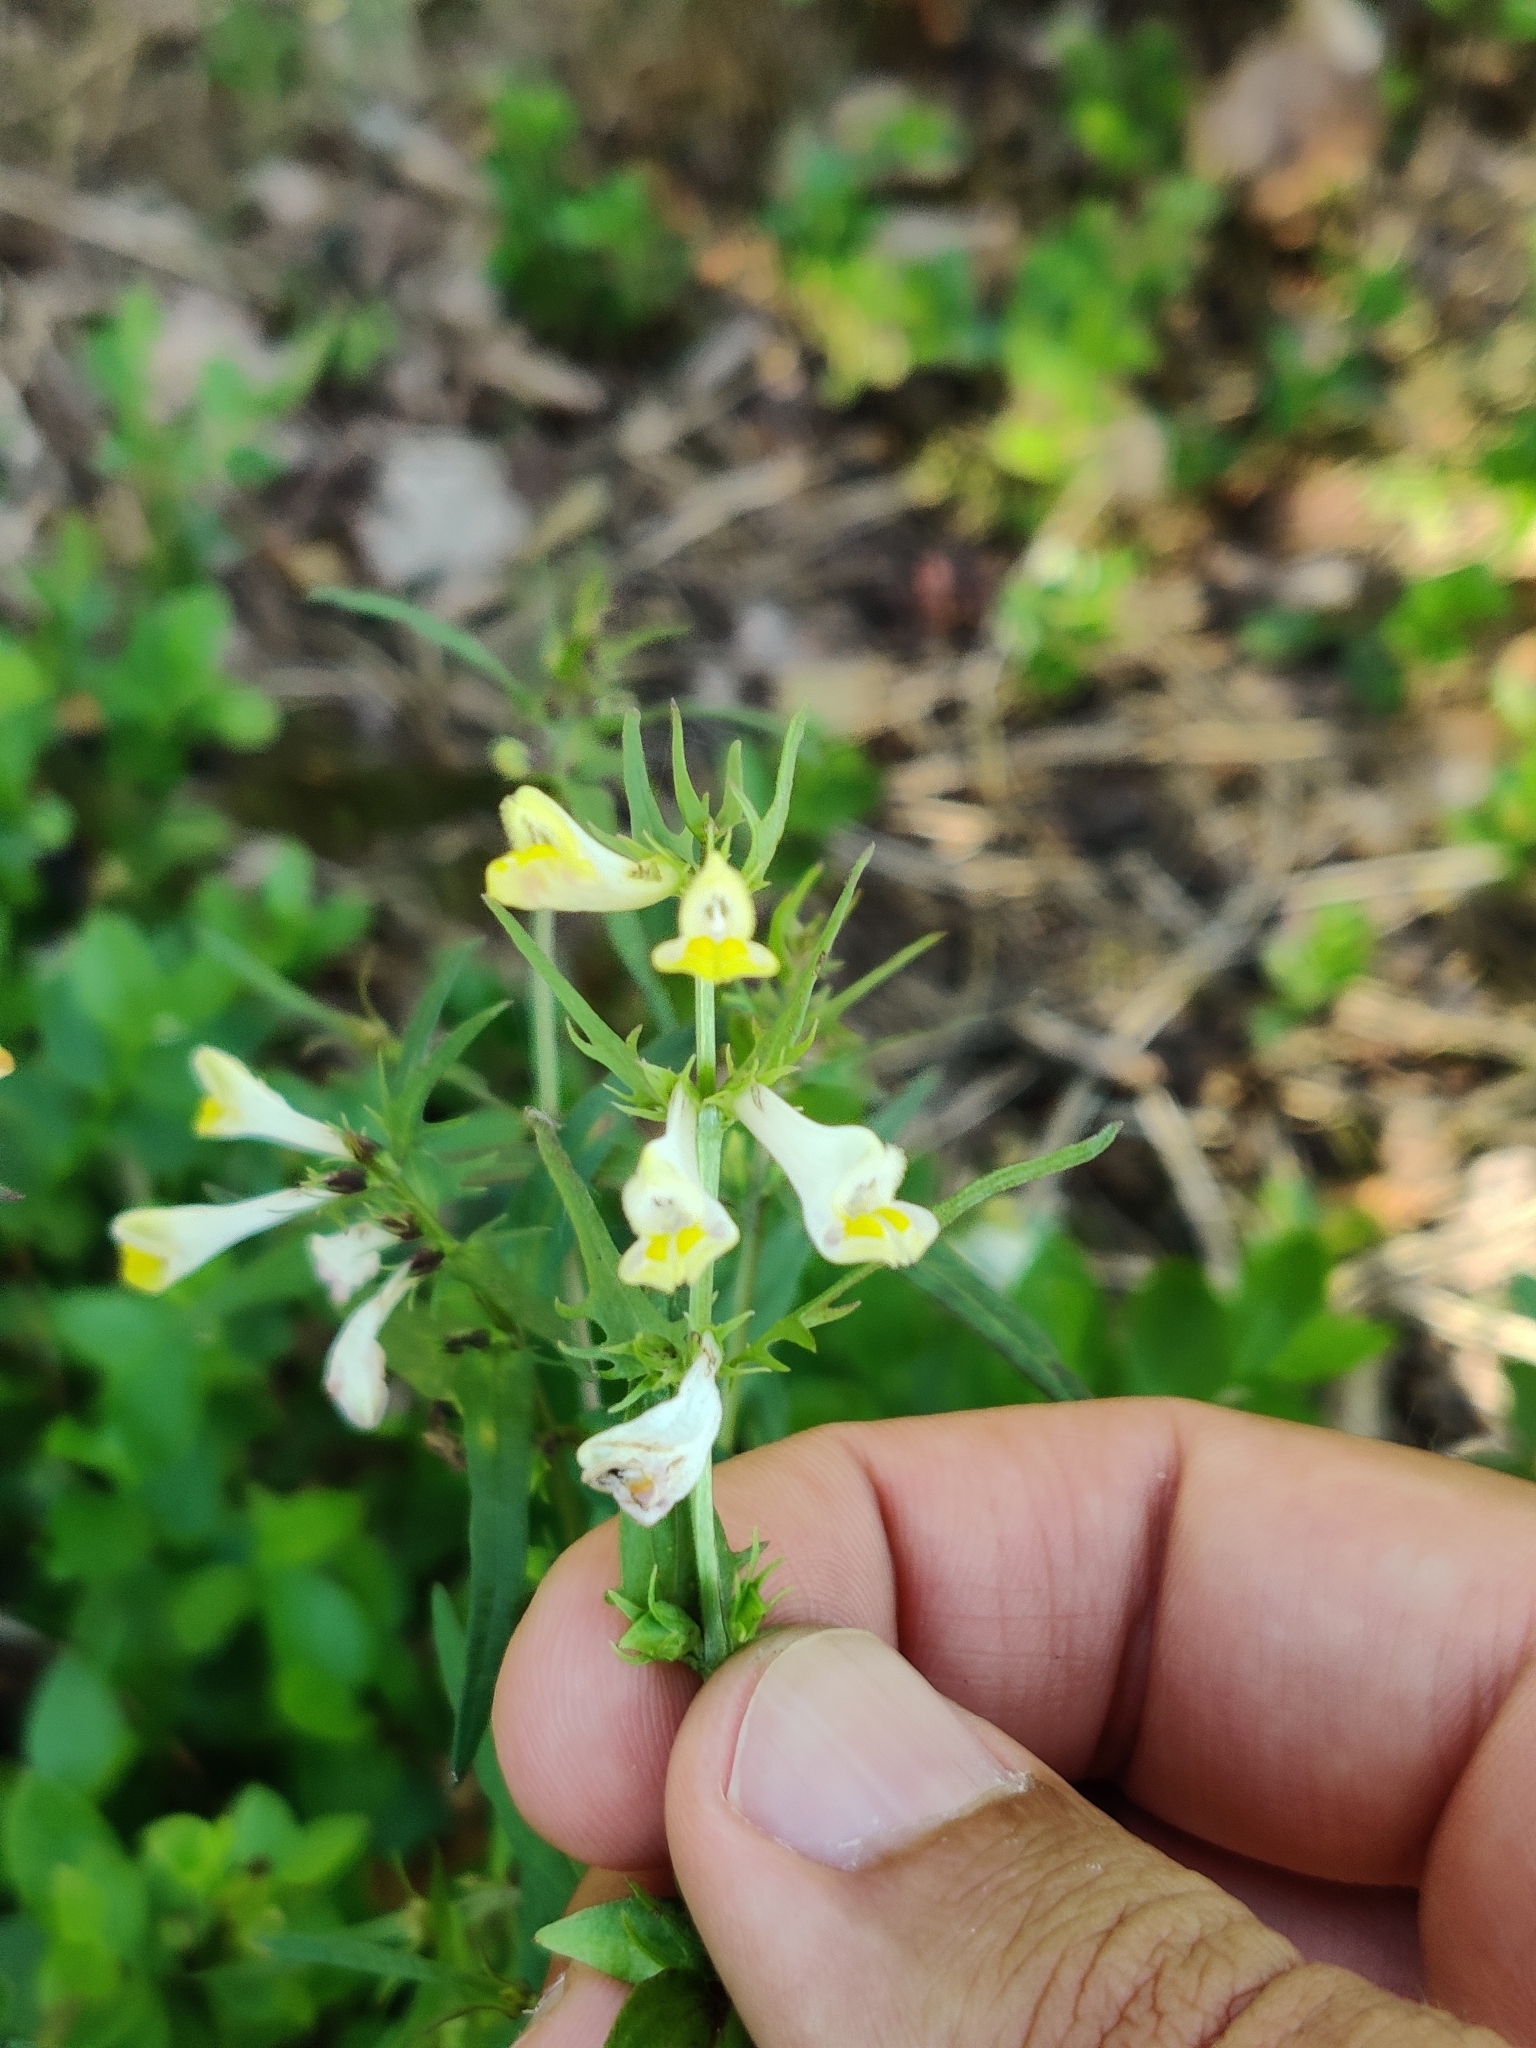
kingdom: Plantae
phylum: Tracheophyta
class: Magnoliopsida
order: Lamiales
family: Orobanchaceae
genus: Melampyrum
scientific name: Melampyrum pratense
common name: Common cow-wheat
